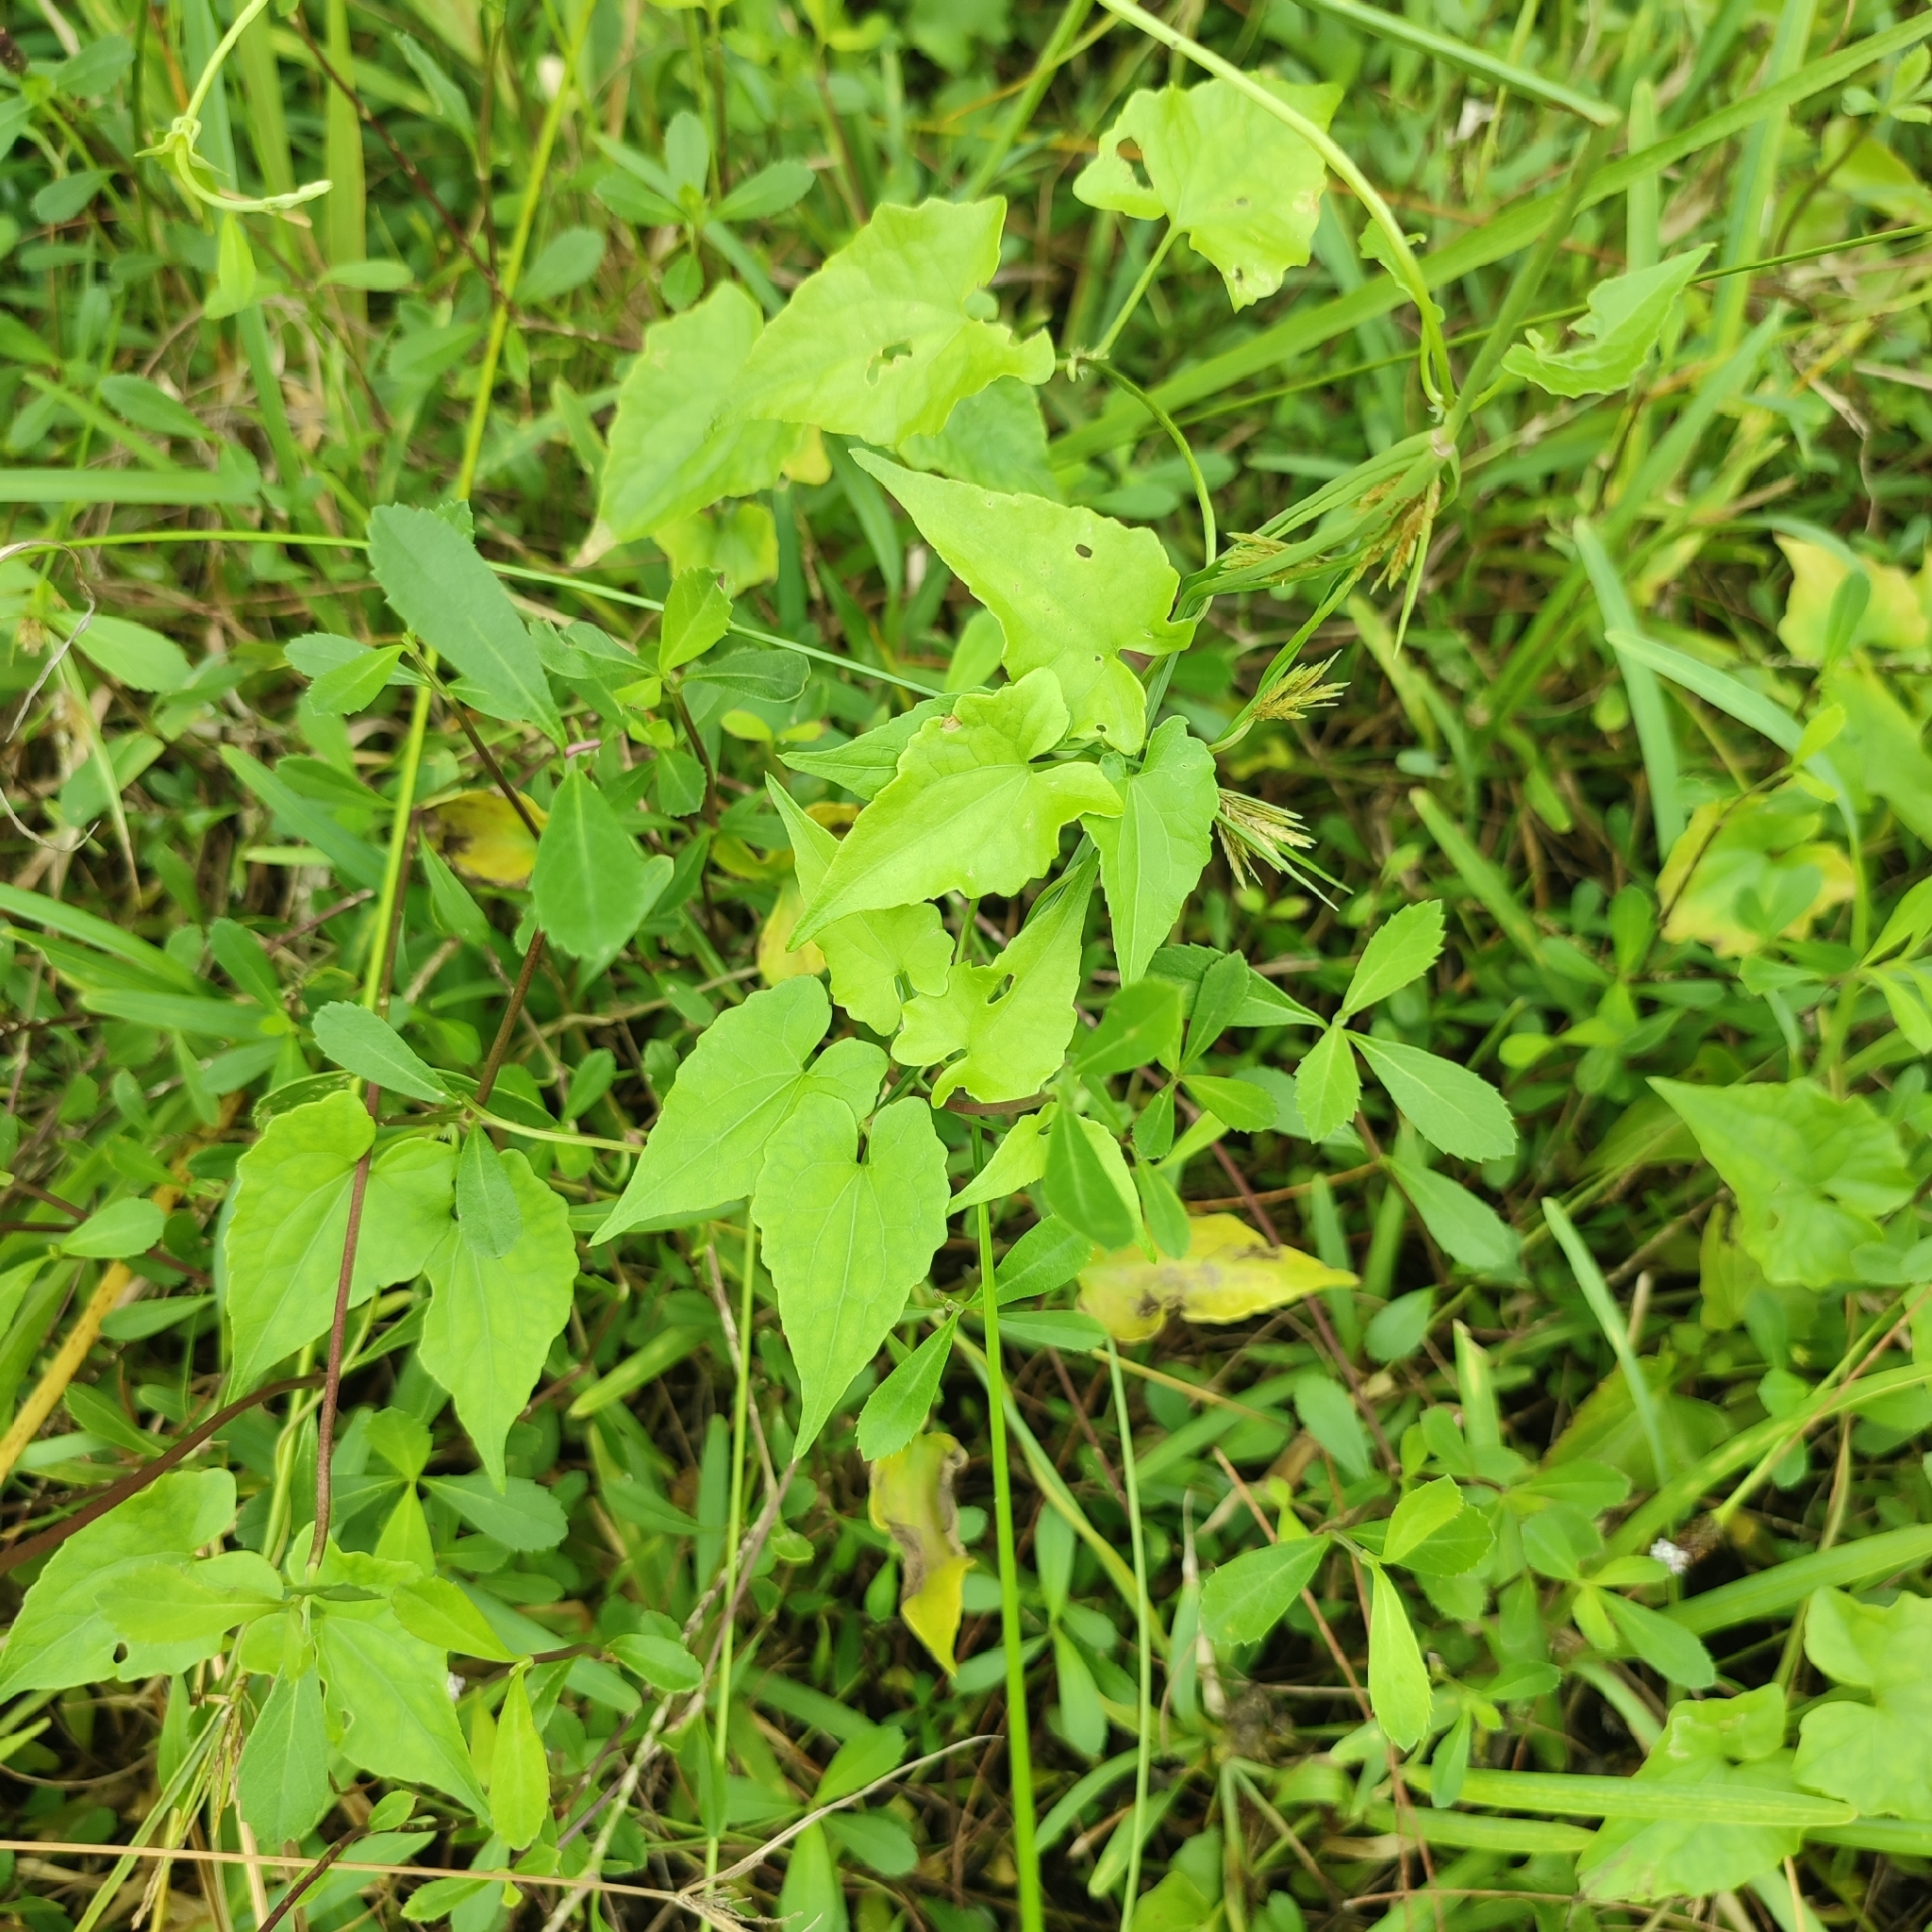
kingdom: Plantae
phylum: Tracheophyta
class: Magnoliopsida
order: Asterales
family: Asteraceae
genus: Mikania
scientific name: Mikania micrantha
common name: Mile-a-minute
